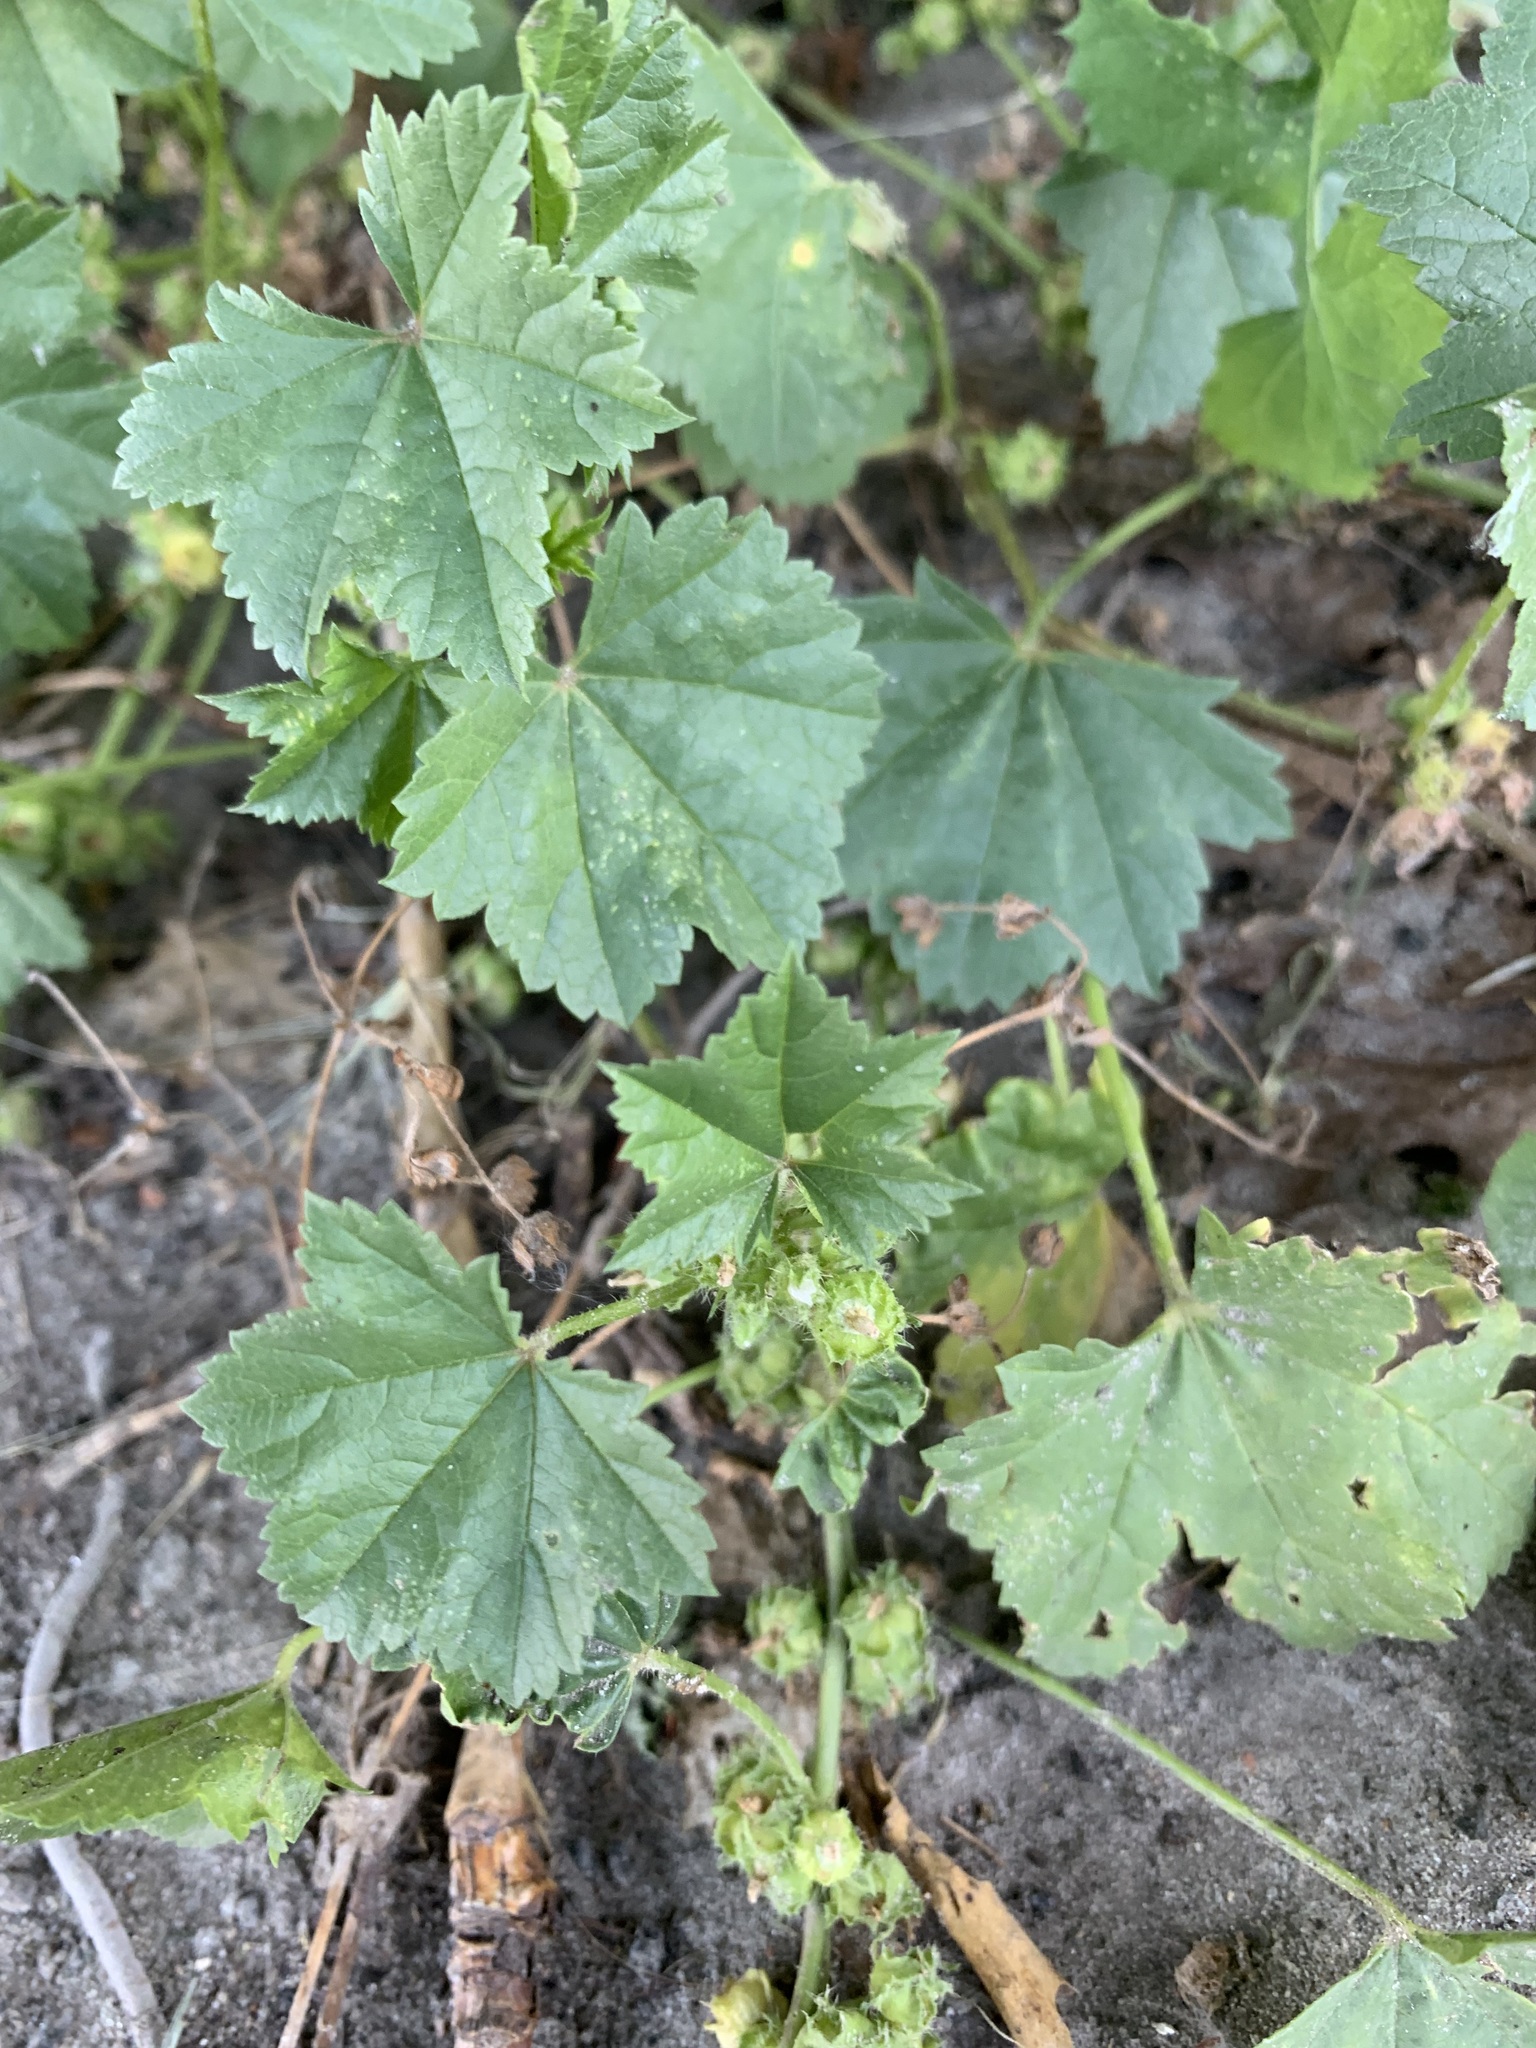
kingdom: Plantae
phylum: Tracheophyta
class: Magnoliopsida
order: Malvales
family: Malvaceae
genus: Malva
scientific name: Malva pusilla
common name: Small mallow
